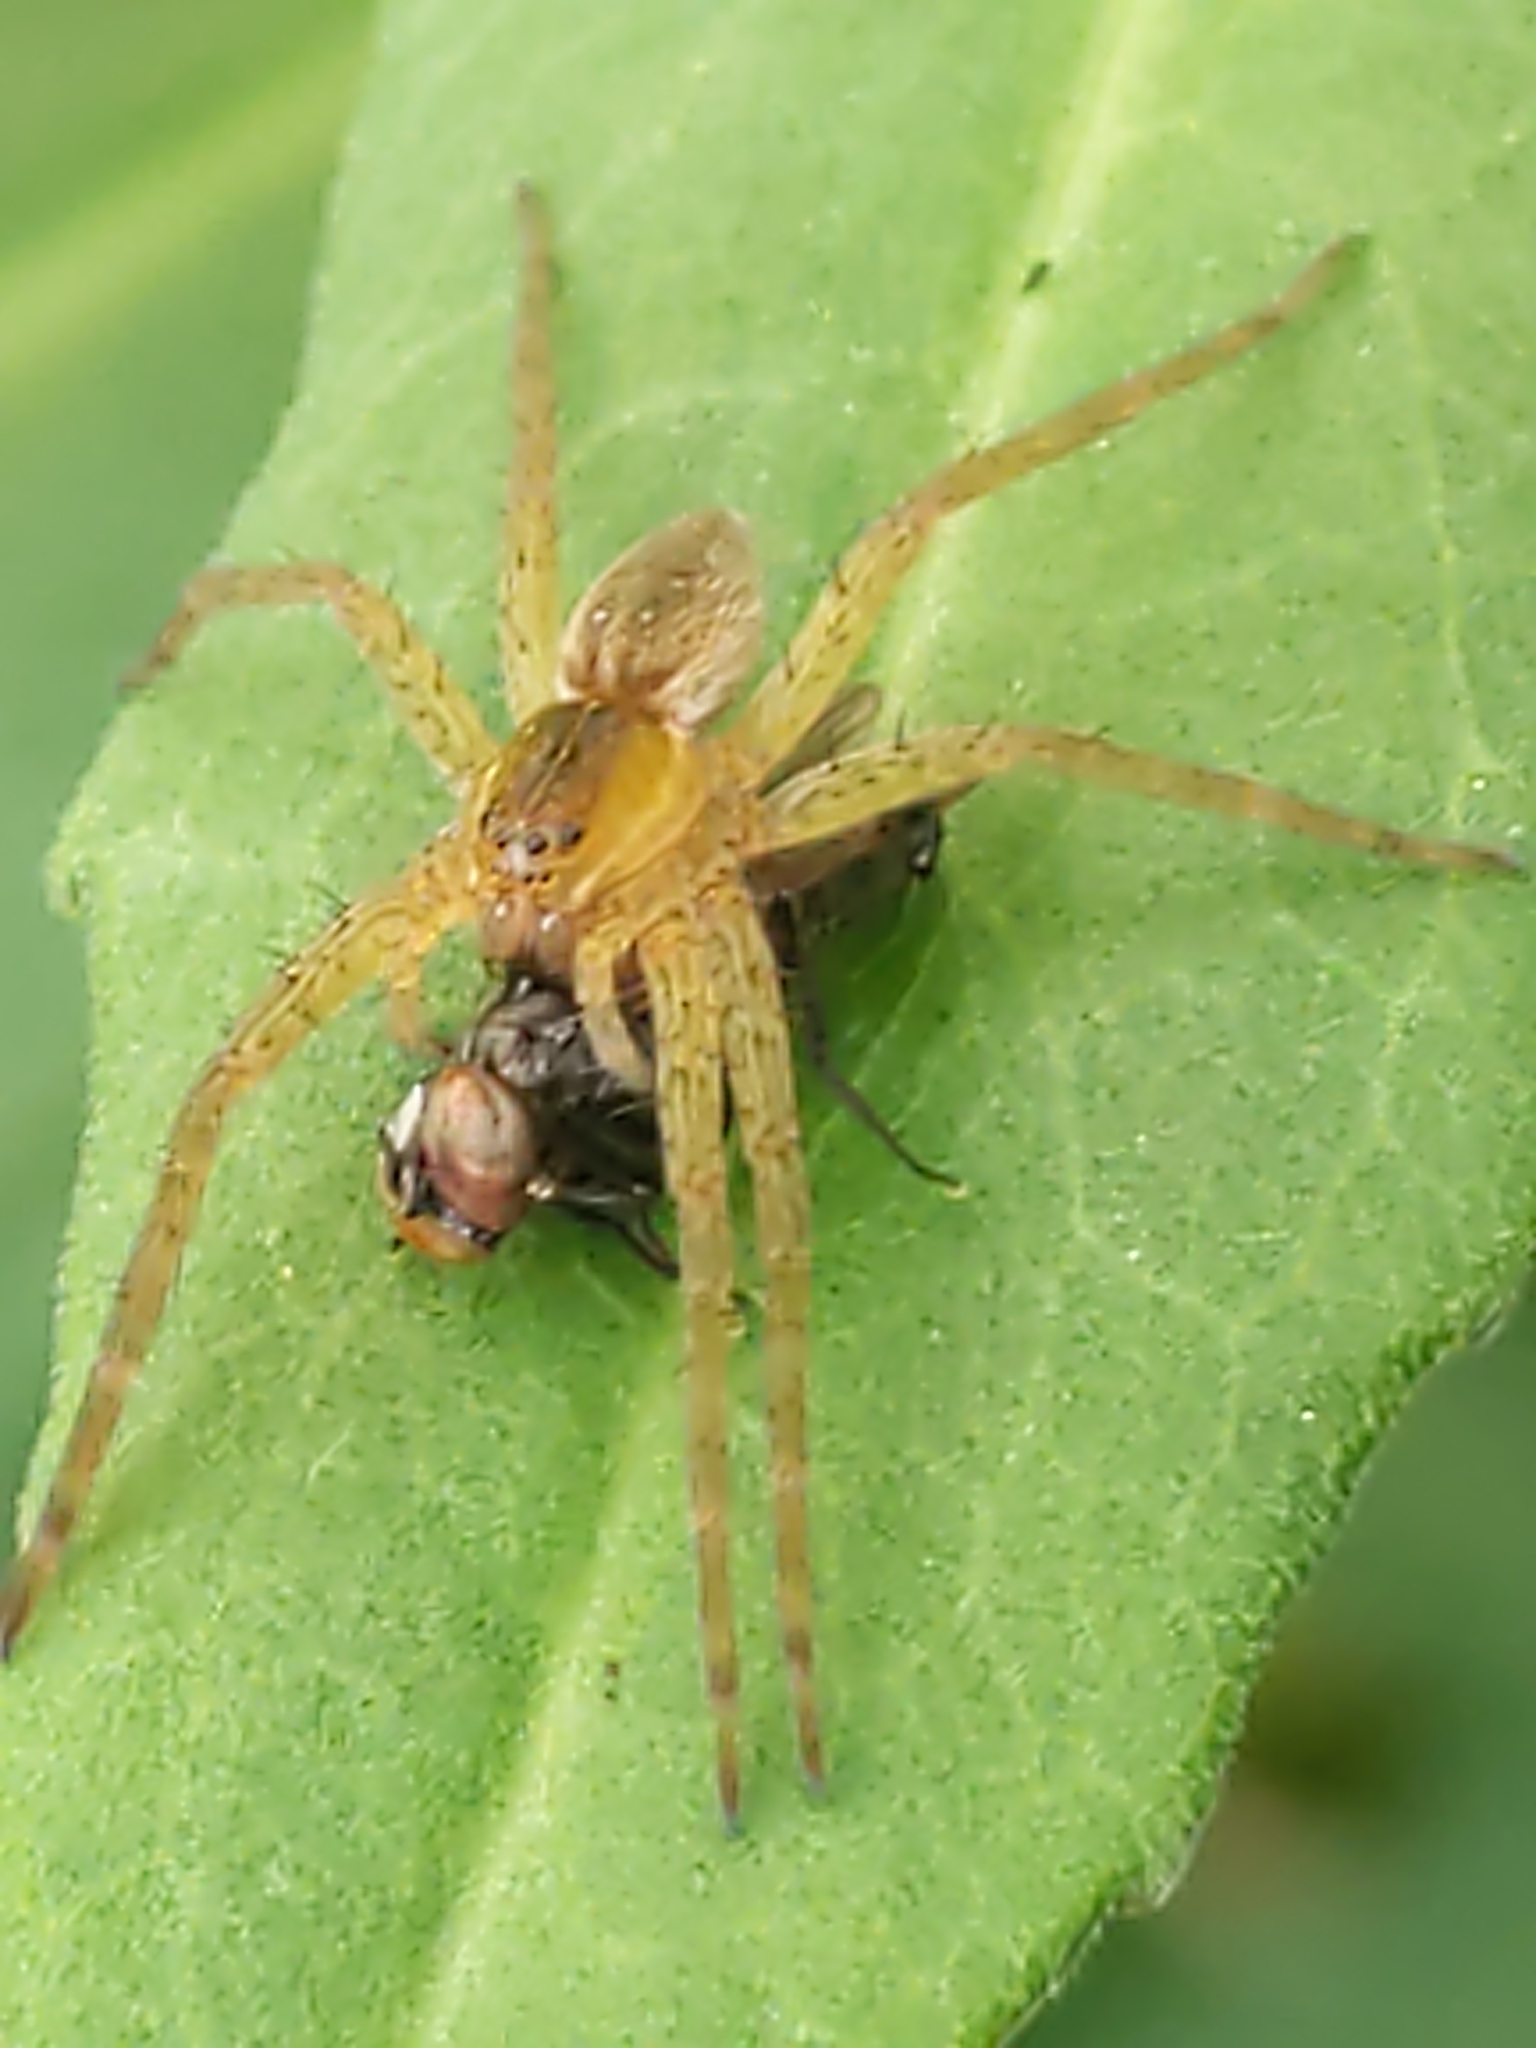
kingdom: Animalia
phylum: Arthropoda
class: Arachnida
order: Araneae
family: Pisauridae
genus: Dolomedes
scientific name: Dolomedes triton
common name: Six-spotted fishing spider
